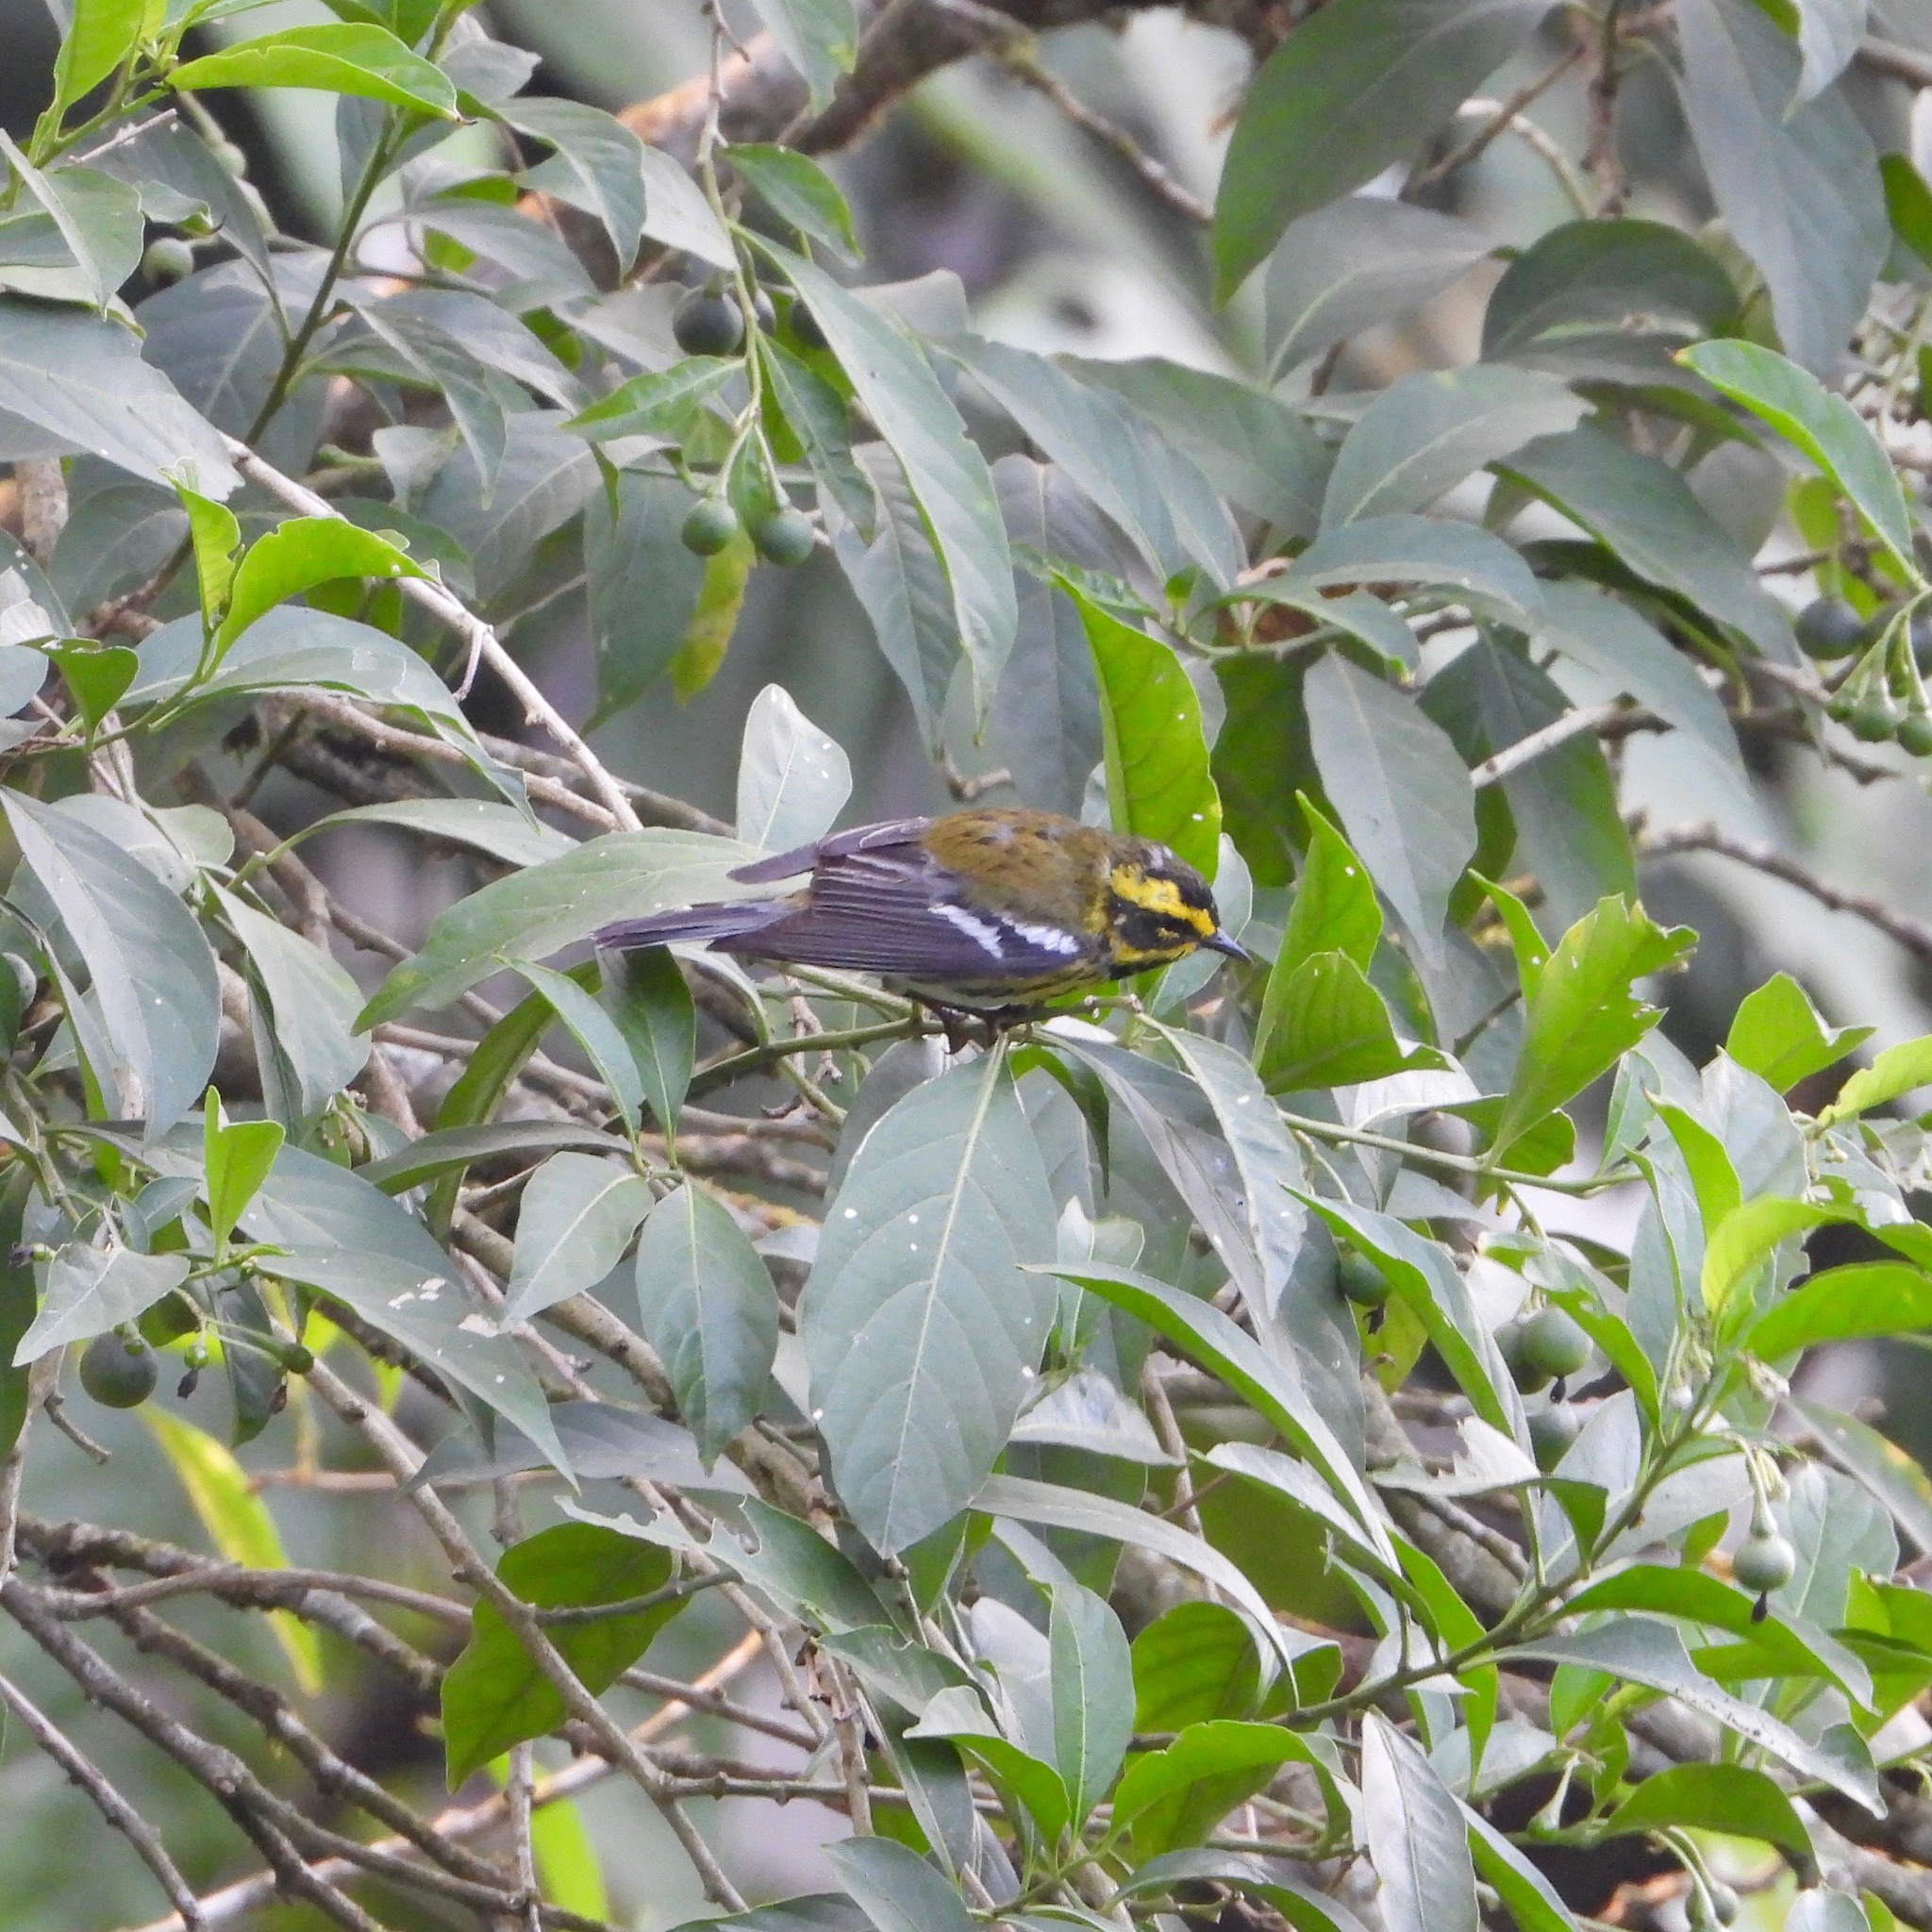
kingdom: Animalia
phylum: Chordata
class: Aves
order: Passeriformes
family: Parulidae
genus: Setophaga
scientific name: Setophaga townsendi
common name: Townsend's warbler
